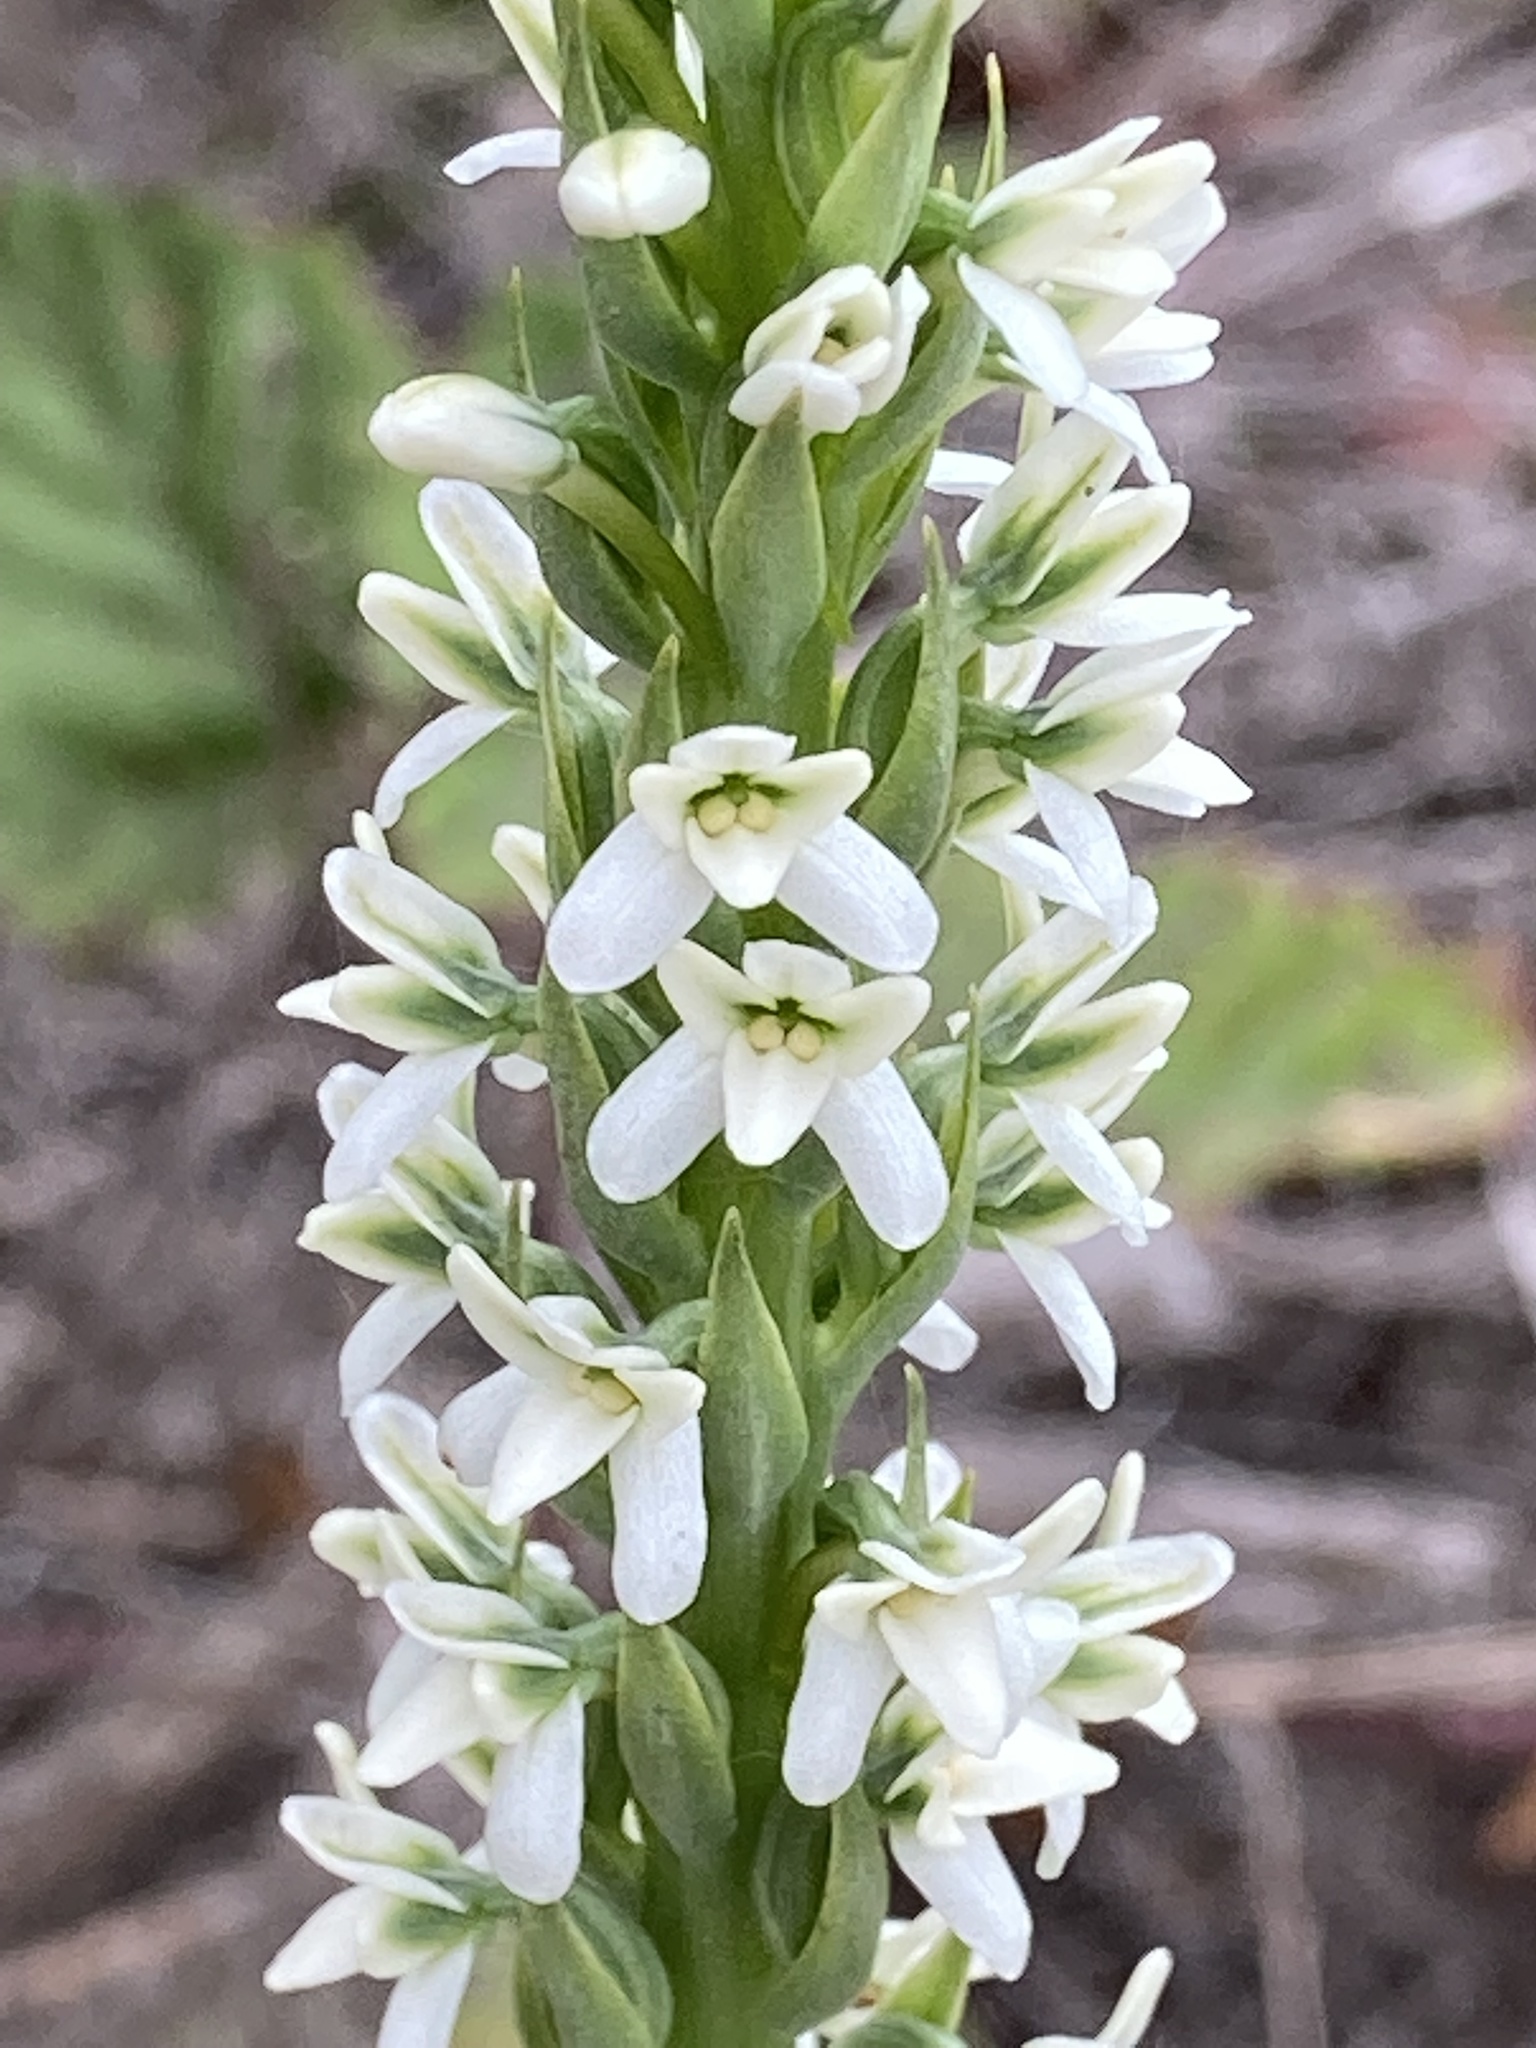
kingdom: Plantae
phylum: Tracheophyta
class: Liliopsida
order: Asparagales
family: Orchidaceae
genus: Platanthera
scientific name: Platanthera elegans
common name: Coast piperia
